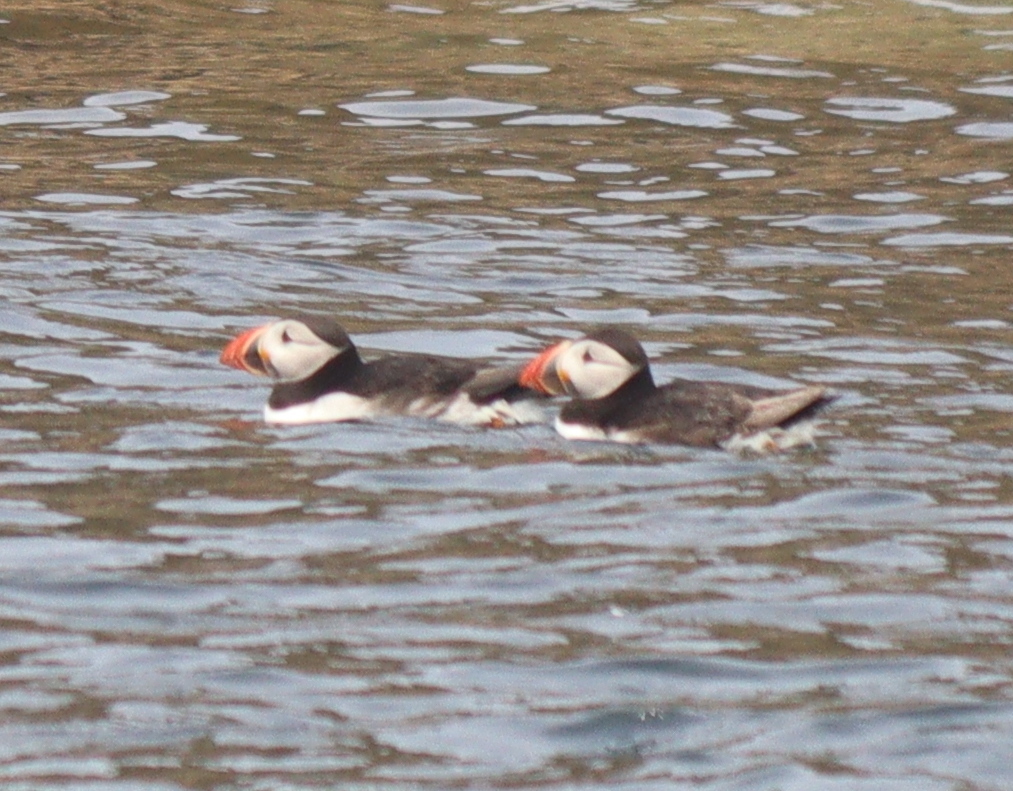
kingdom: Animalia
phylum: Chordata
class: Aves
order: Charadriiformes
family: Alcidae
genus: Fratercula
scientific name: Fratercula arctica
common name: Atlantic puffin
